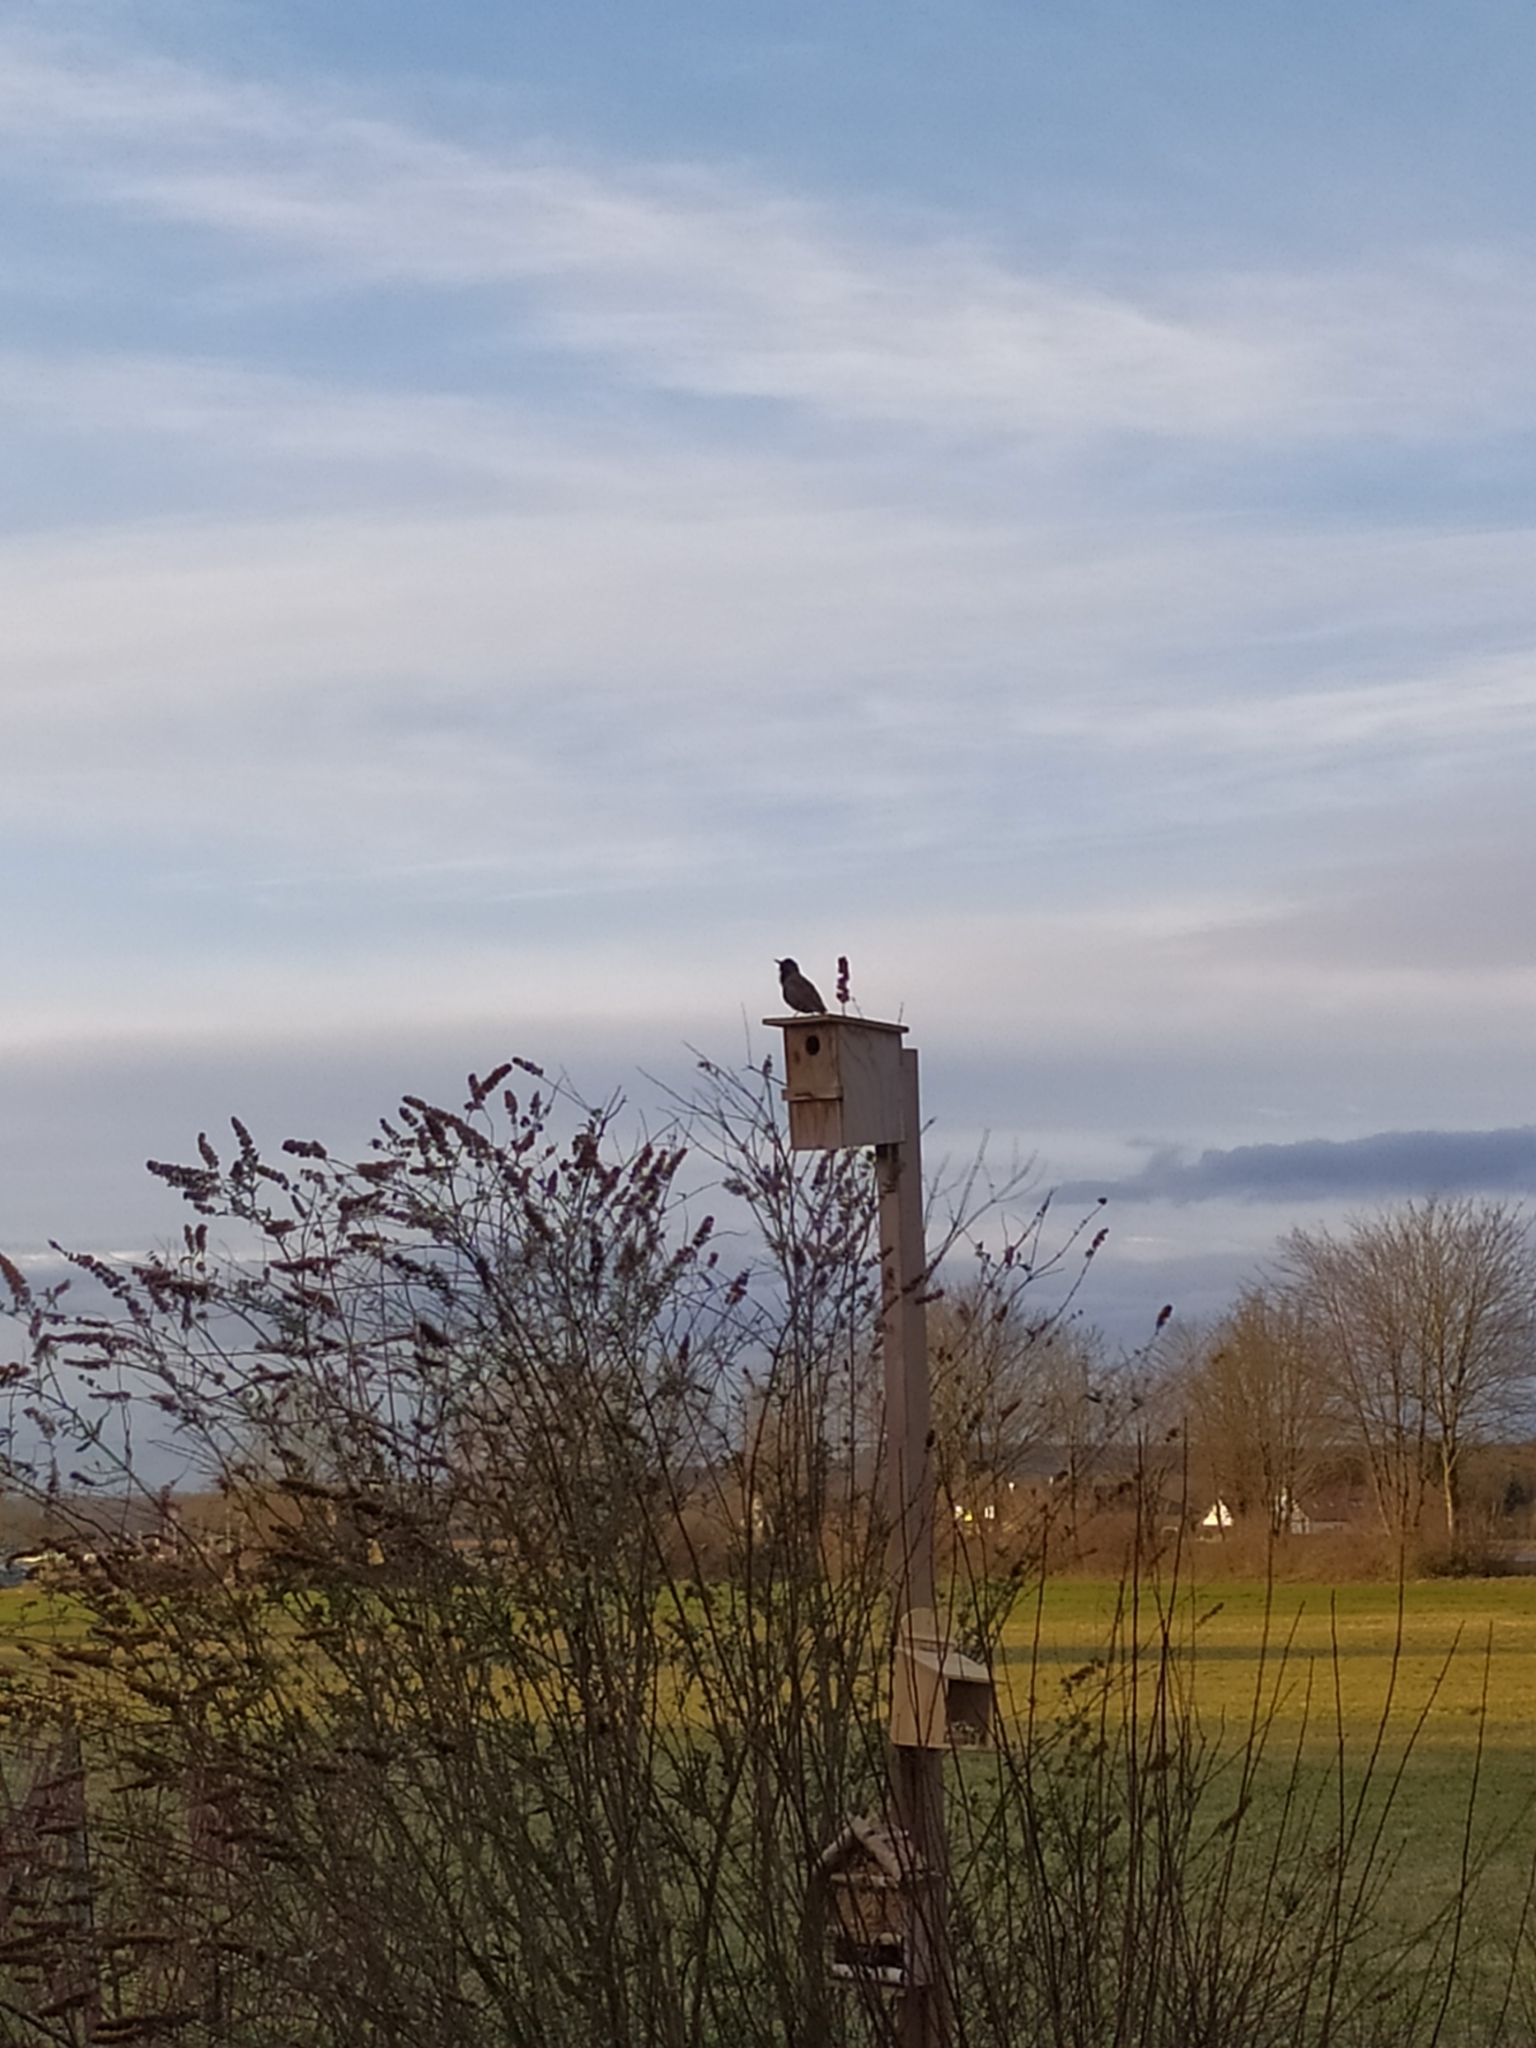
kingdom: Animalia
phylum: Chordata
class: Aves
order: Passeriformes
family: Sturnidae
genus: Sturnus
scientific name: Sturnus vulgaris
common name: Common starling
